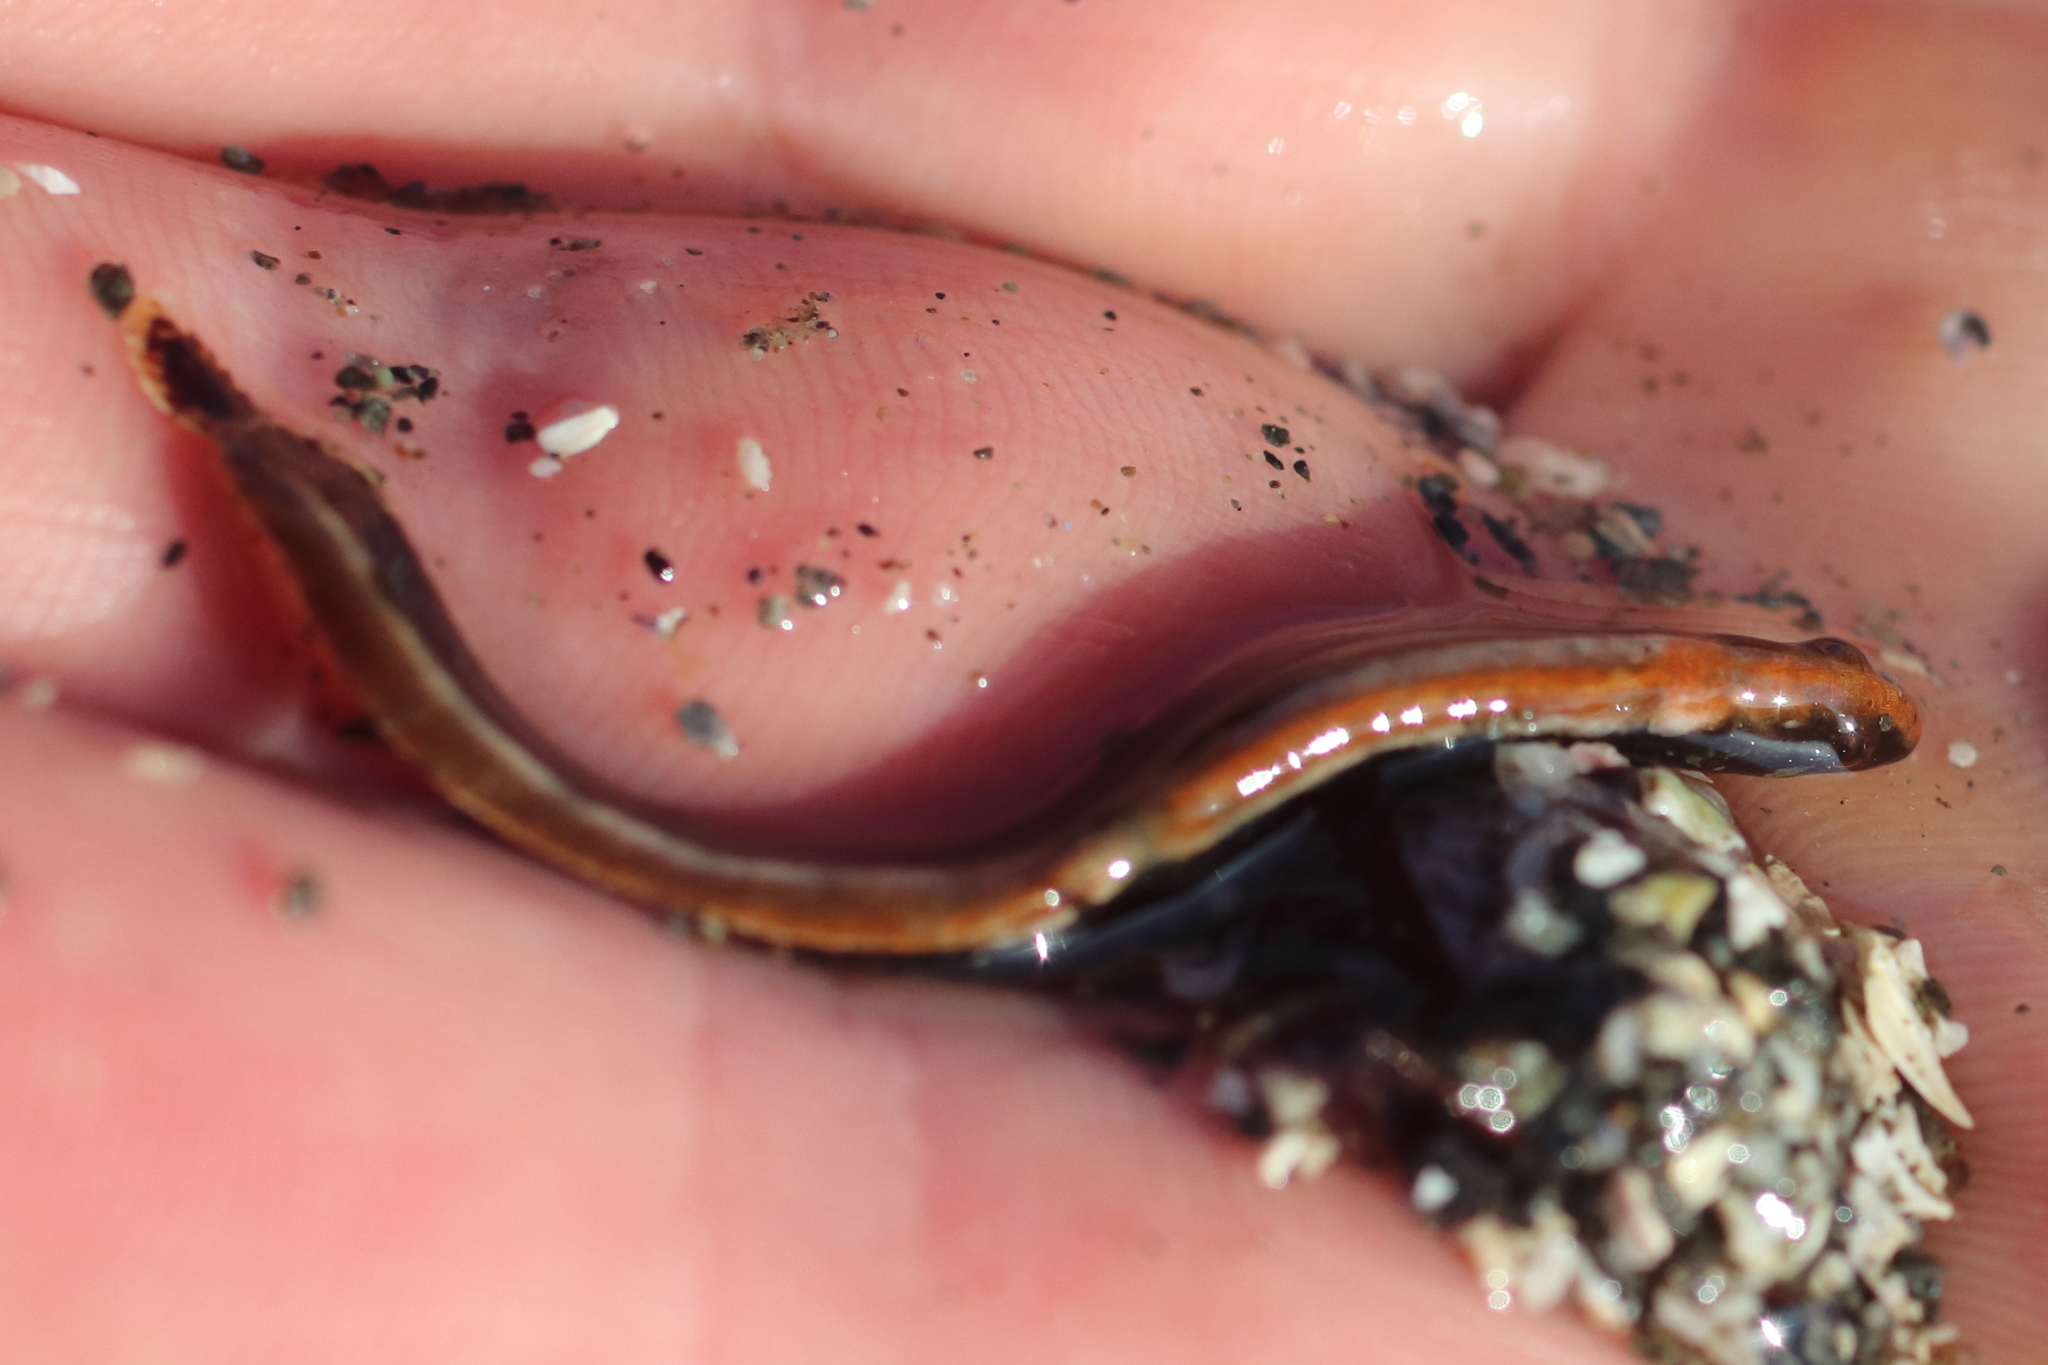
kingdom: Animalia
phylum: Chordata
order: Perciformes
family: Stichaeidae
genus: Anoplarchus
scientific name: Anoplarchus purpurescens
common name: High cockscomb
